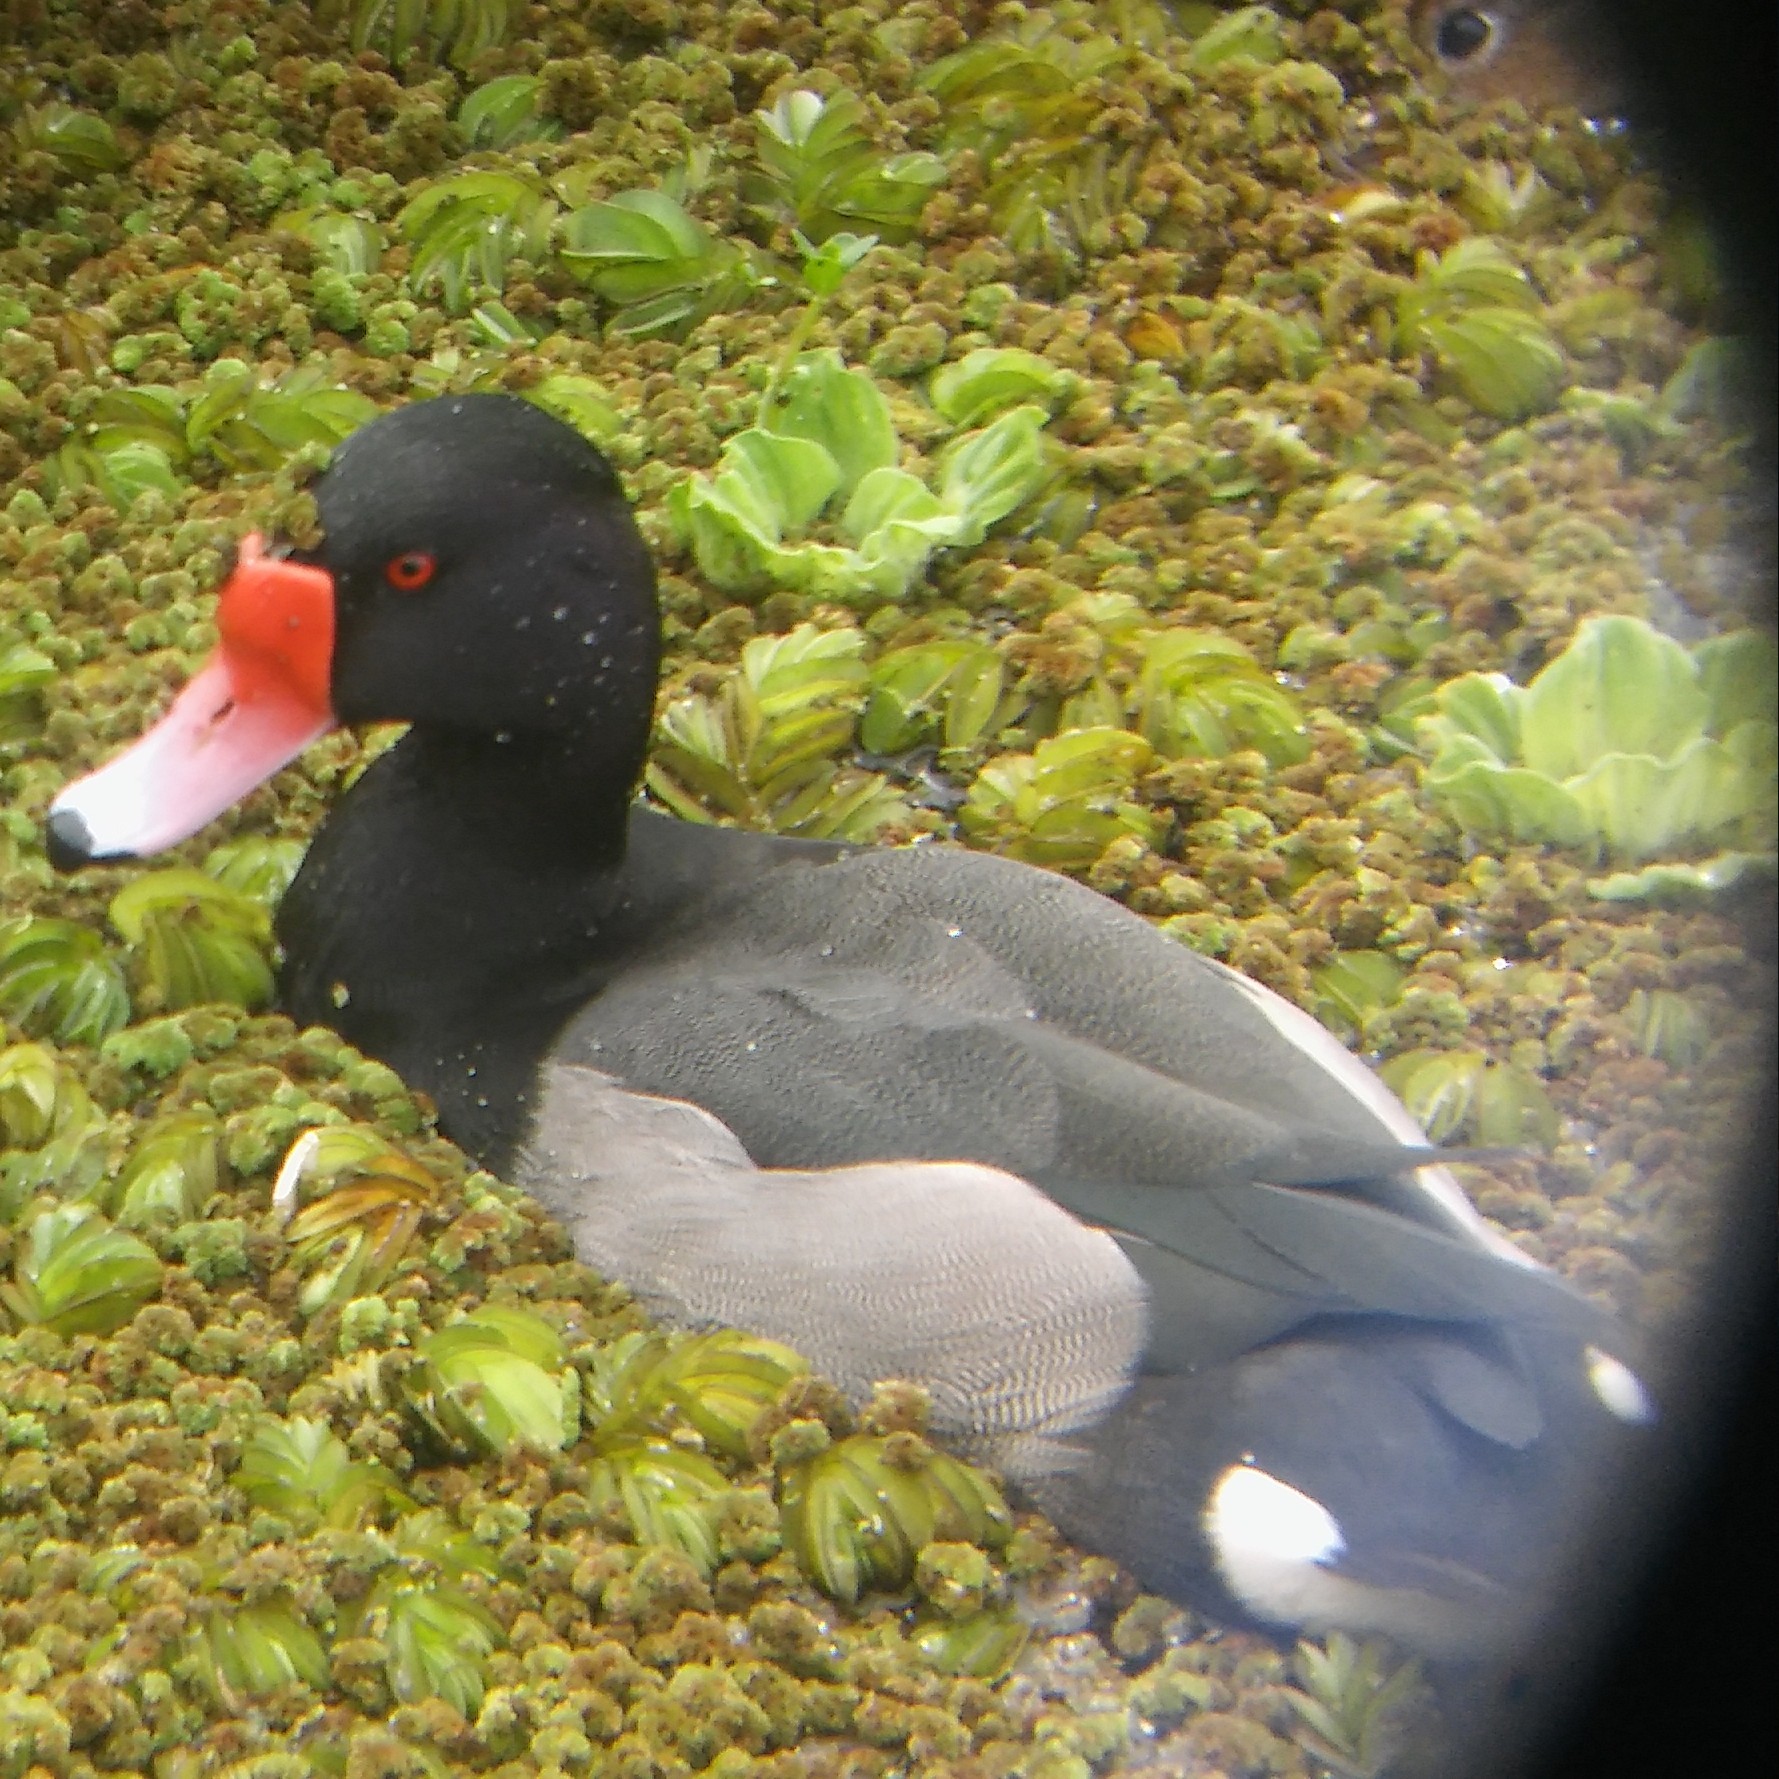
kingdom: Animalia
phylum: Chordata
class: Aves
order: Anseriformes
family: Anatidae
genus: Netta
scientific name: Netta peposaca
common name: Rosy-billed pochard
